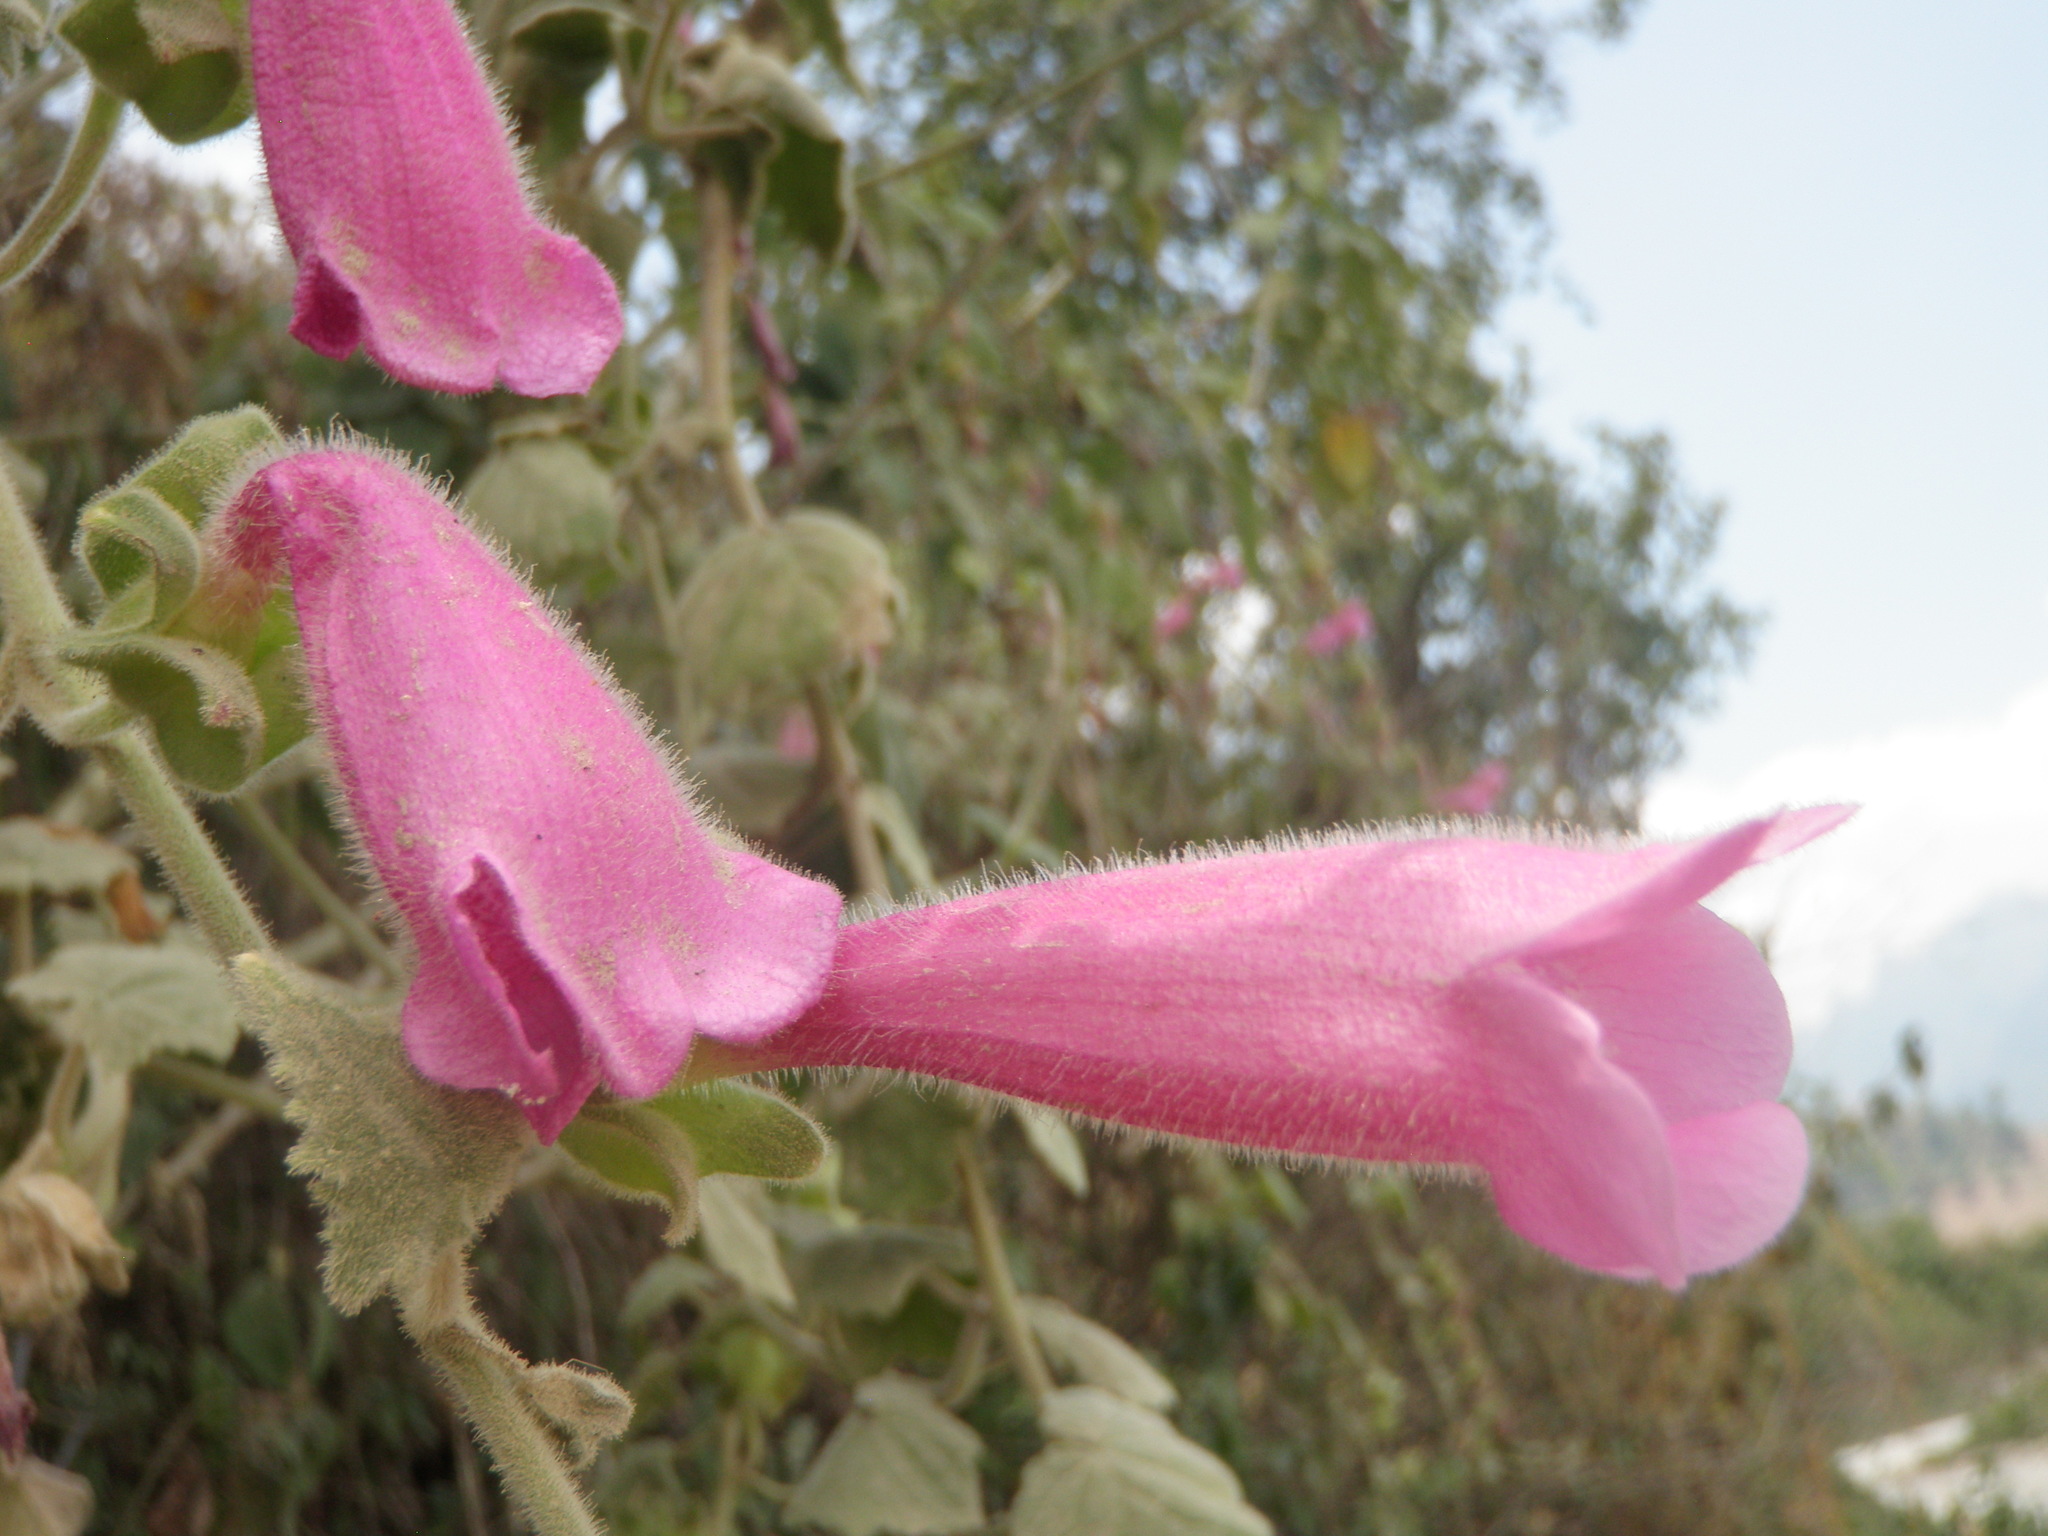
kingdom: Plantae
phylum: Tracheophyta
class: Magnoliopsida
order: Lamiales
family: Plantaginaceae
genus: Lophospermum
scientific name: Lophospermum erubescens
